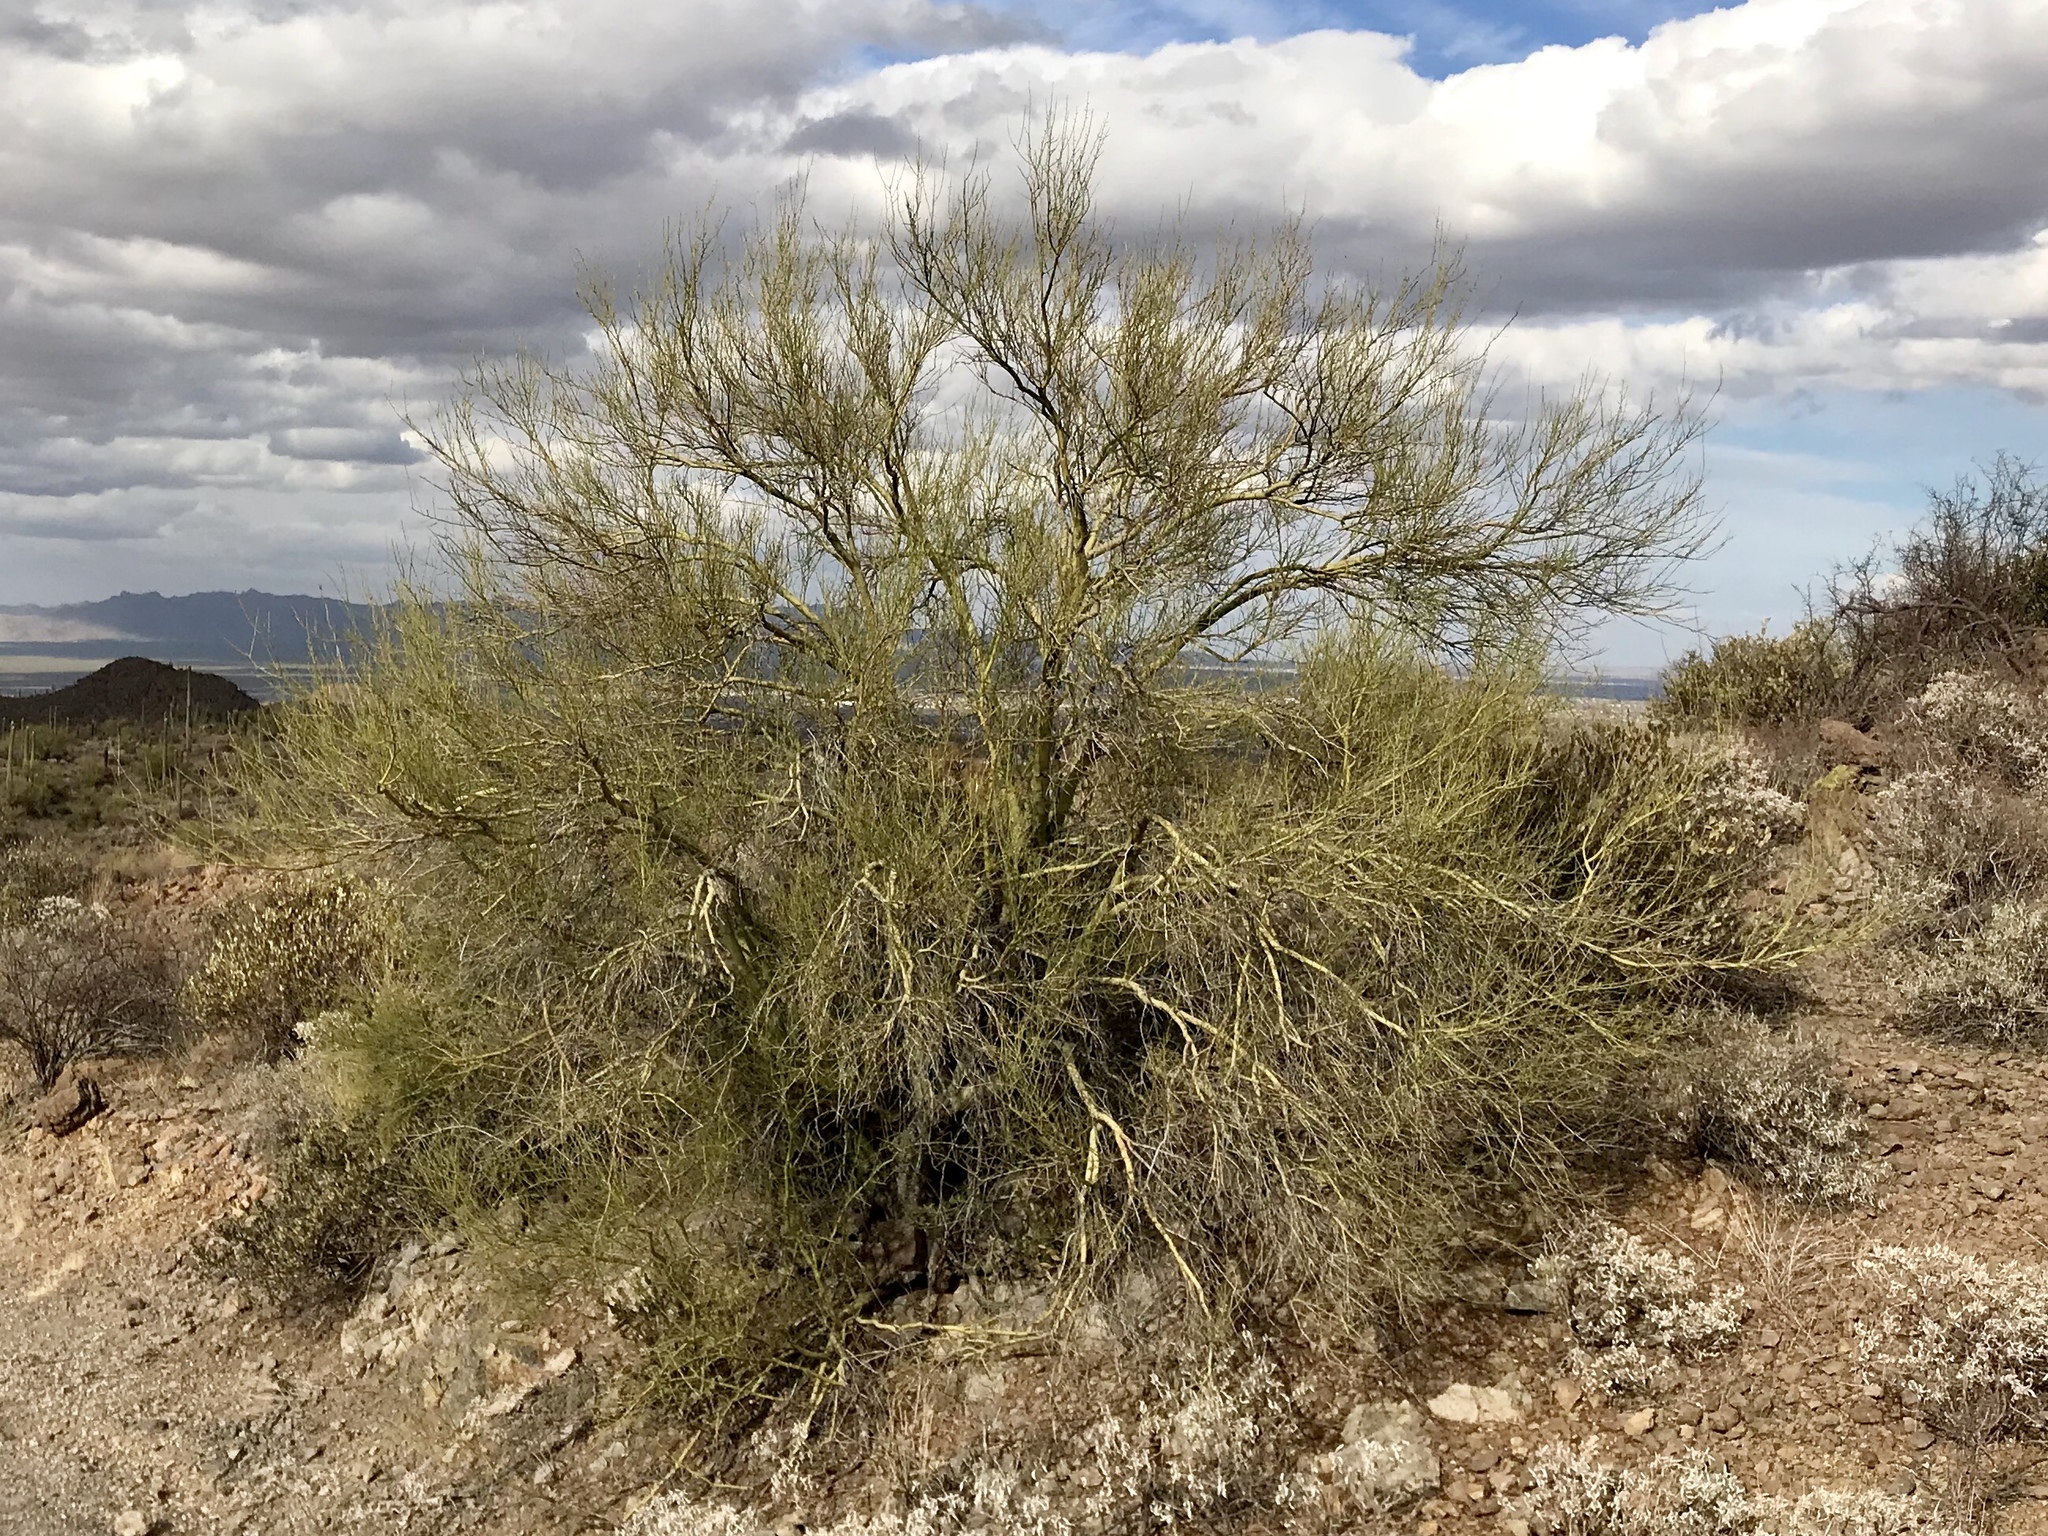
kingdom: Plantae
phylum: Tracheophyta
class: Magnoliopsida
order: Fabales
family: Fabaceae
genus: Parkinsonia
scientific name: Parkinsonia microphylla
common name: Yellow paloverde
